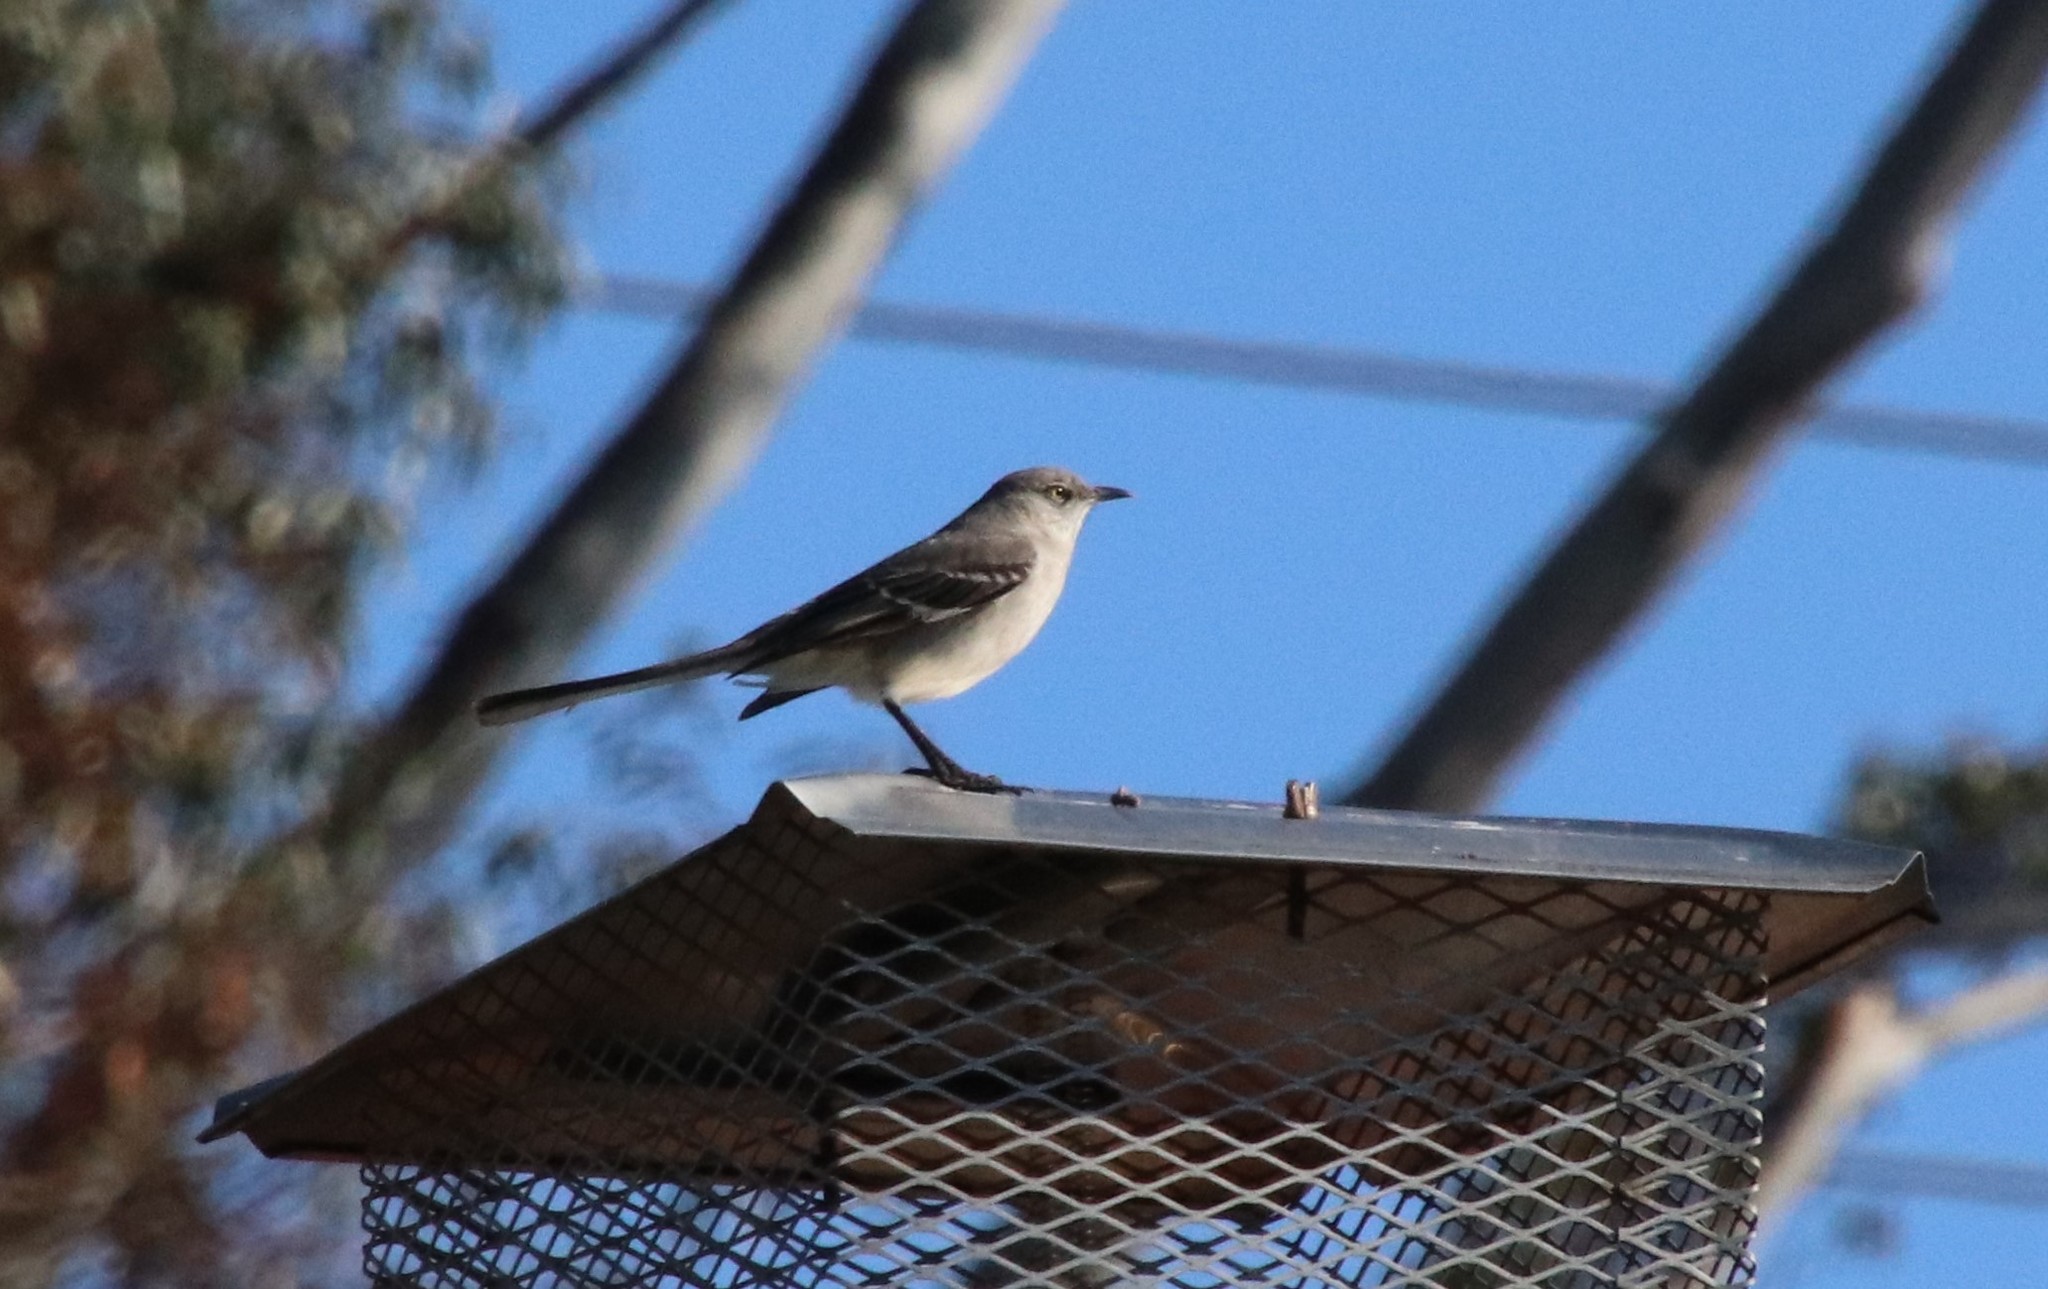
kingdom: Animalia
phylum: Chordata
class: Aves
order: Passeriformes
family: Mimidae
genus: Mimus
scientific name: Mimus polyglottos
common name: Northern mockingbird
